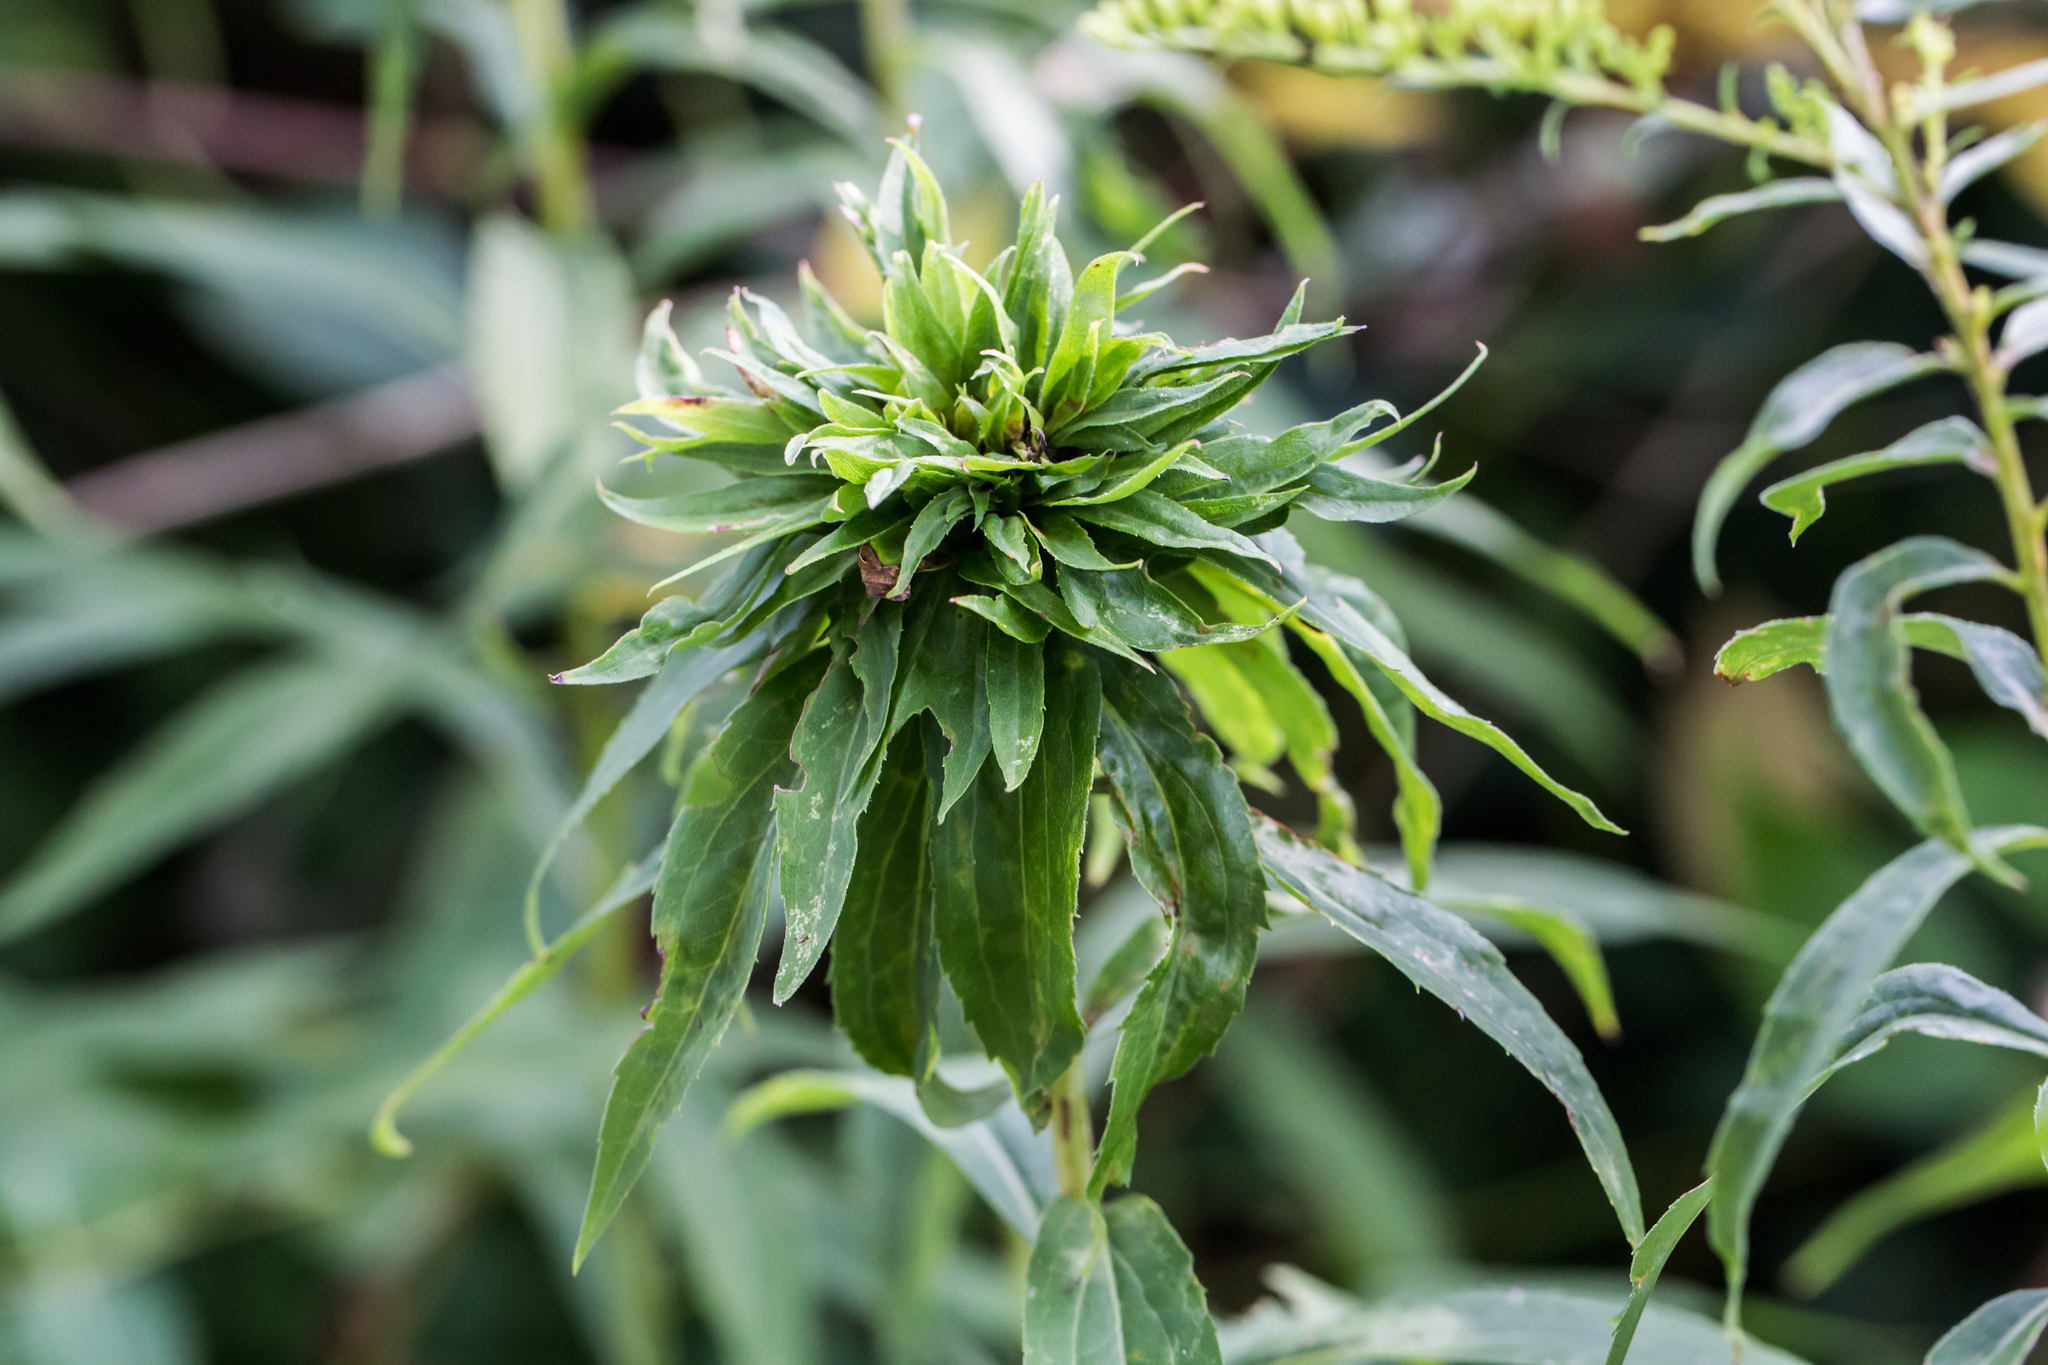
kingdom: Animalia
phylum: Arthropoda
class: Insecta
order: Diptera
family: Cecidomyiidae
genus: Rhopalomyia
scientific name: Rhopalomyia capitata
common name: Giant goldenrod bunch gall midge
